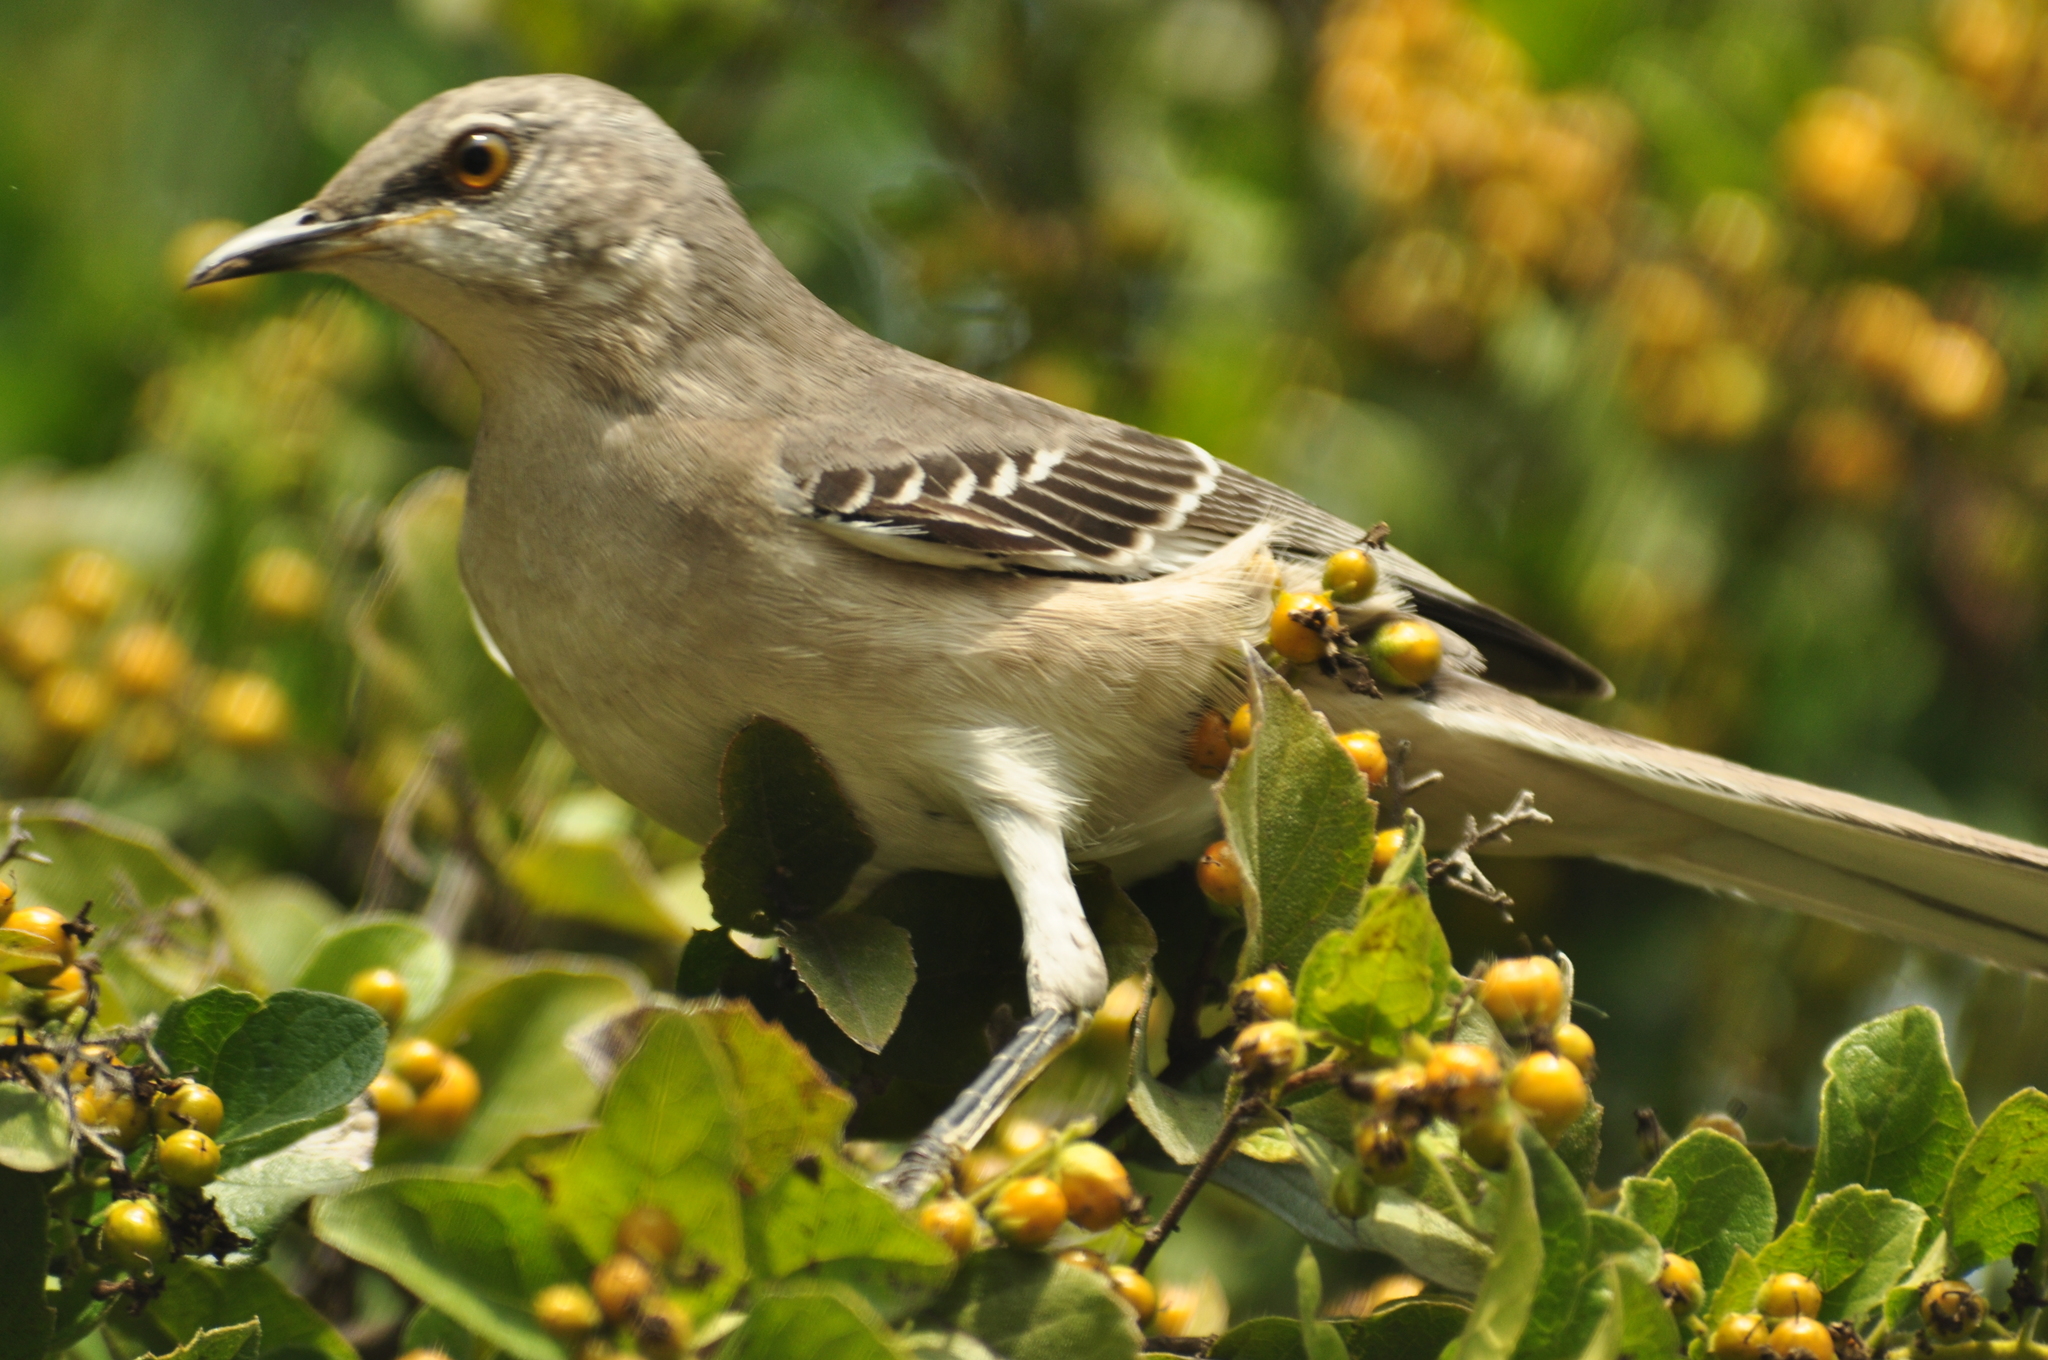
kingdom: Animalia
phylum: Chordata
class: Aves
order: Passeriformes
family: Mimidae
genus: Mimus
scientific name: Mimus polyglottos
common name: Northern mockingbird
